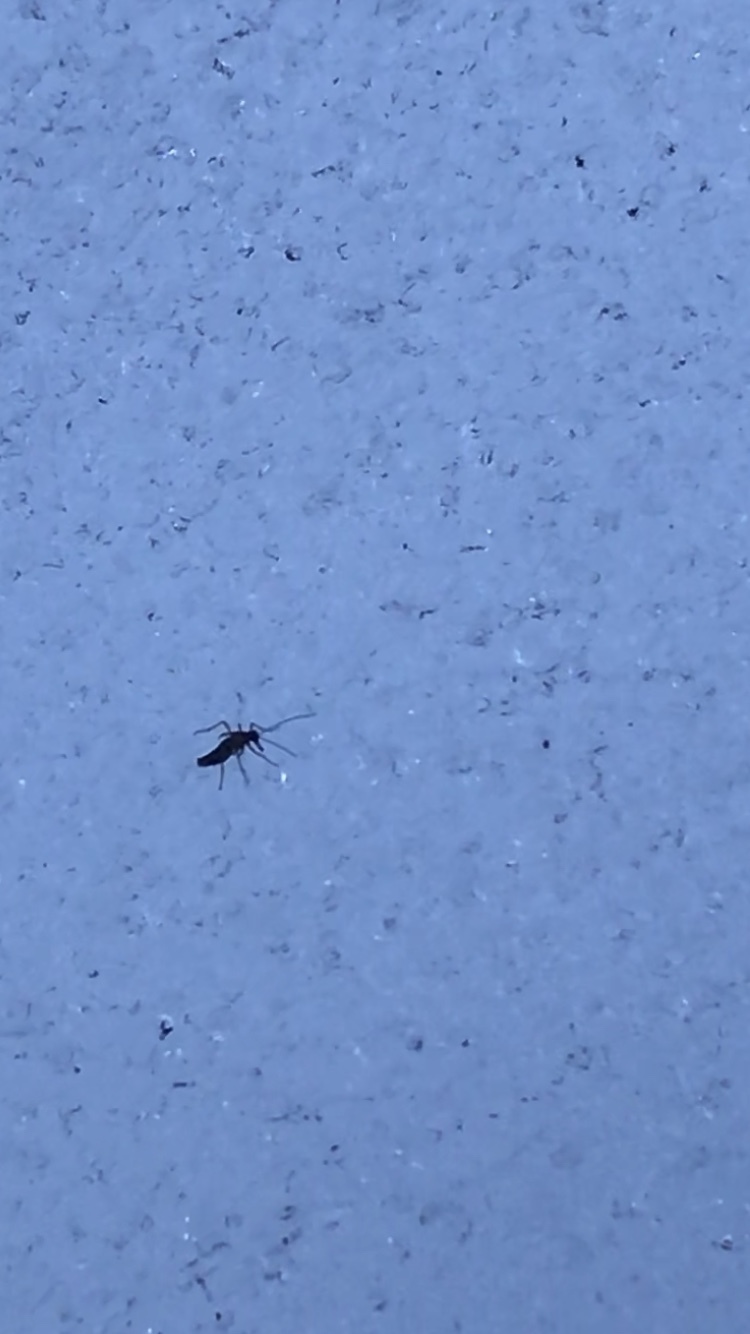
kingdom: Animalia
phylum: Arthropoda
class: Insecta
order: Mecoptera
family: Boreidae
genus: Boreus
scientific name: Boreus westwoodi
